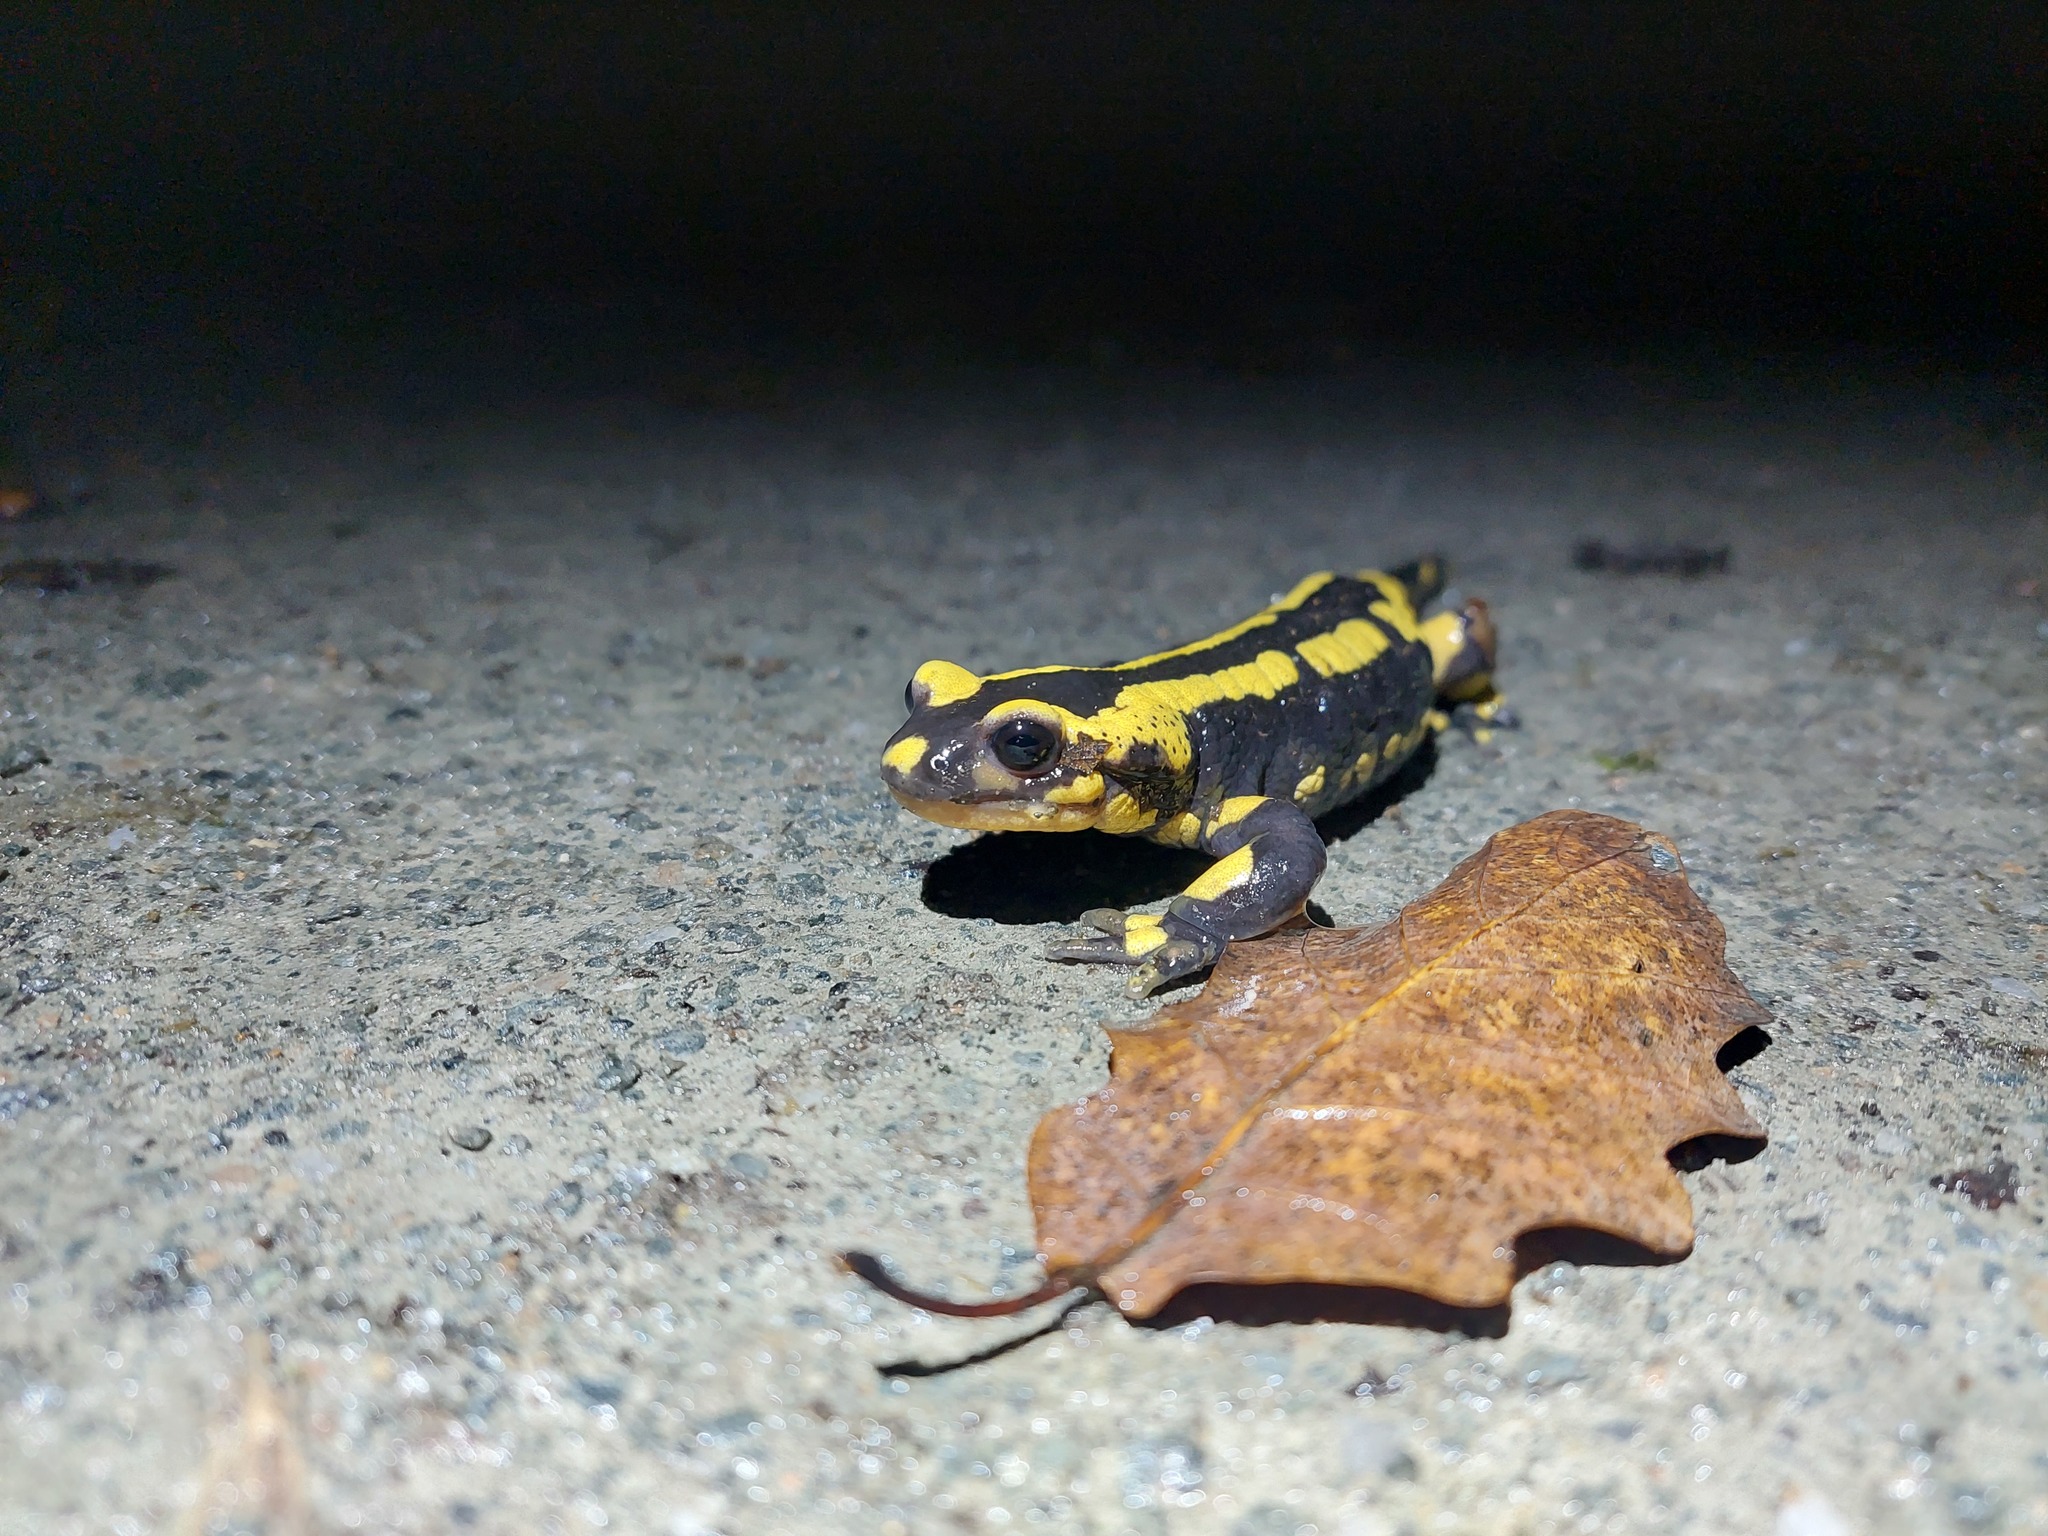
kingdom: Animalia
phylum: Chordata
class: Amphibia
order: Caudata
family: Salamandridae
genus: Salamandra
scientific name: Salamandra salamandra
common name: Fire salamander
